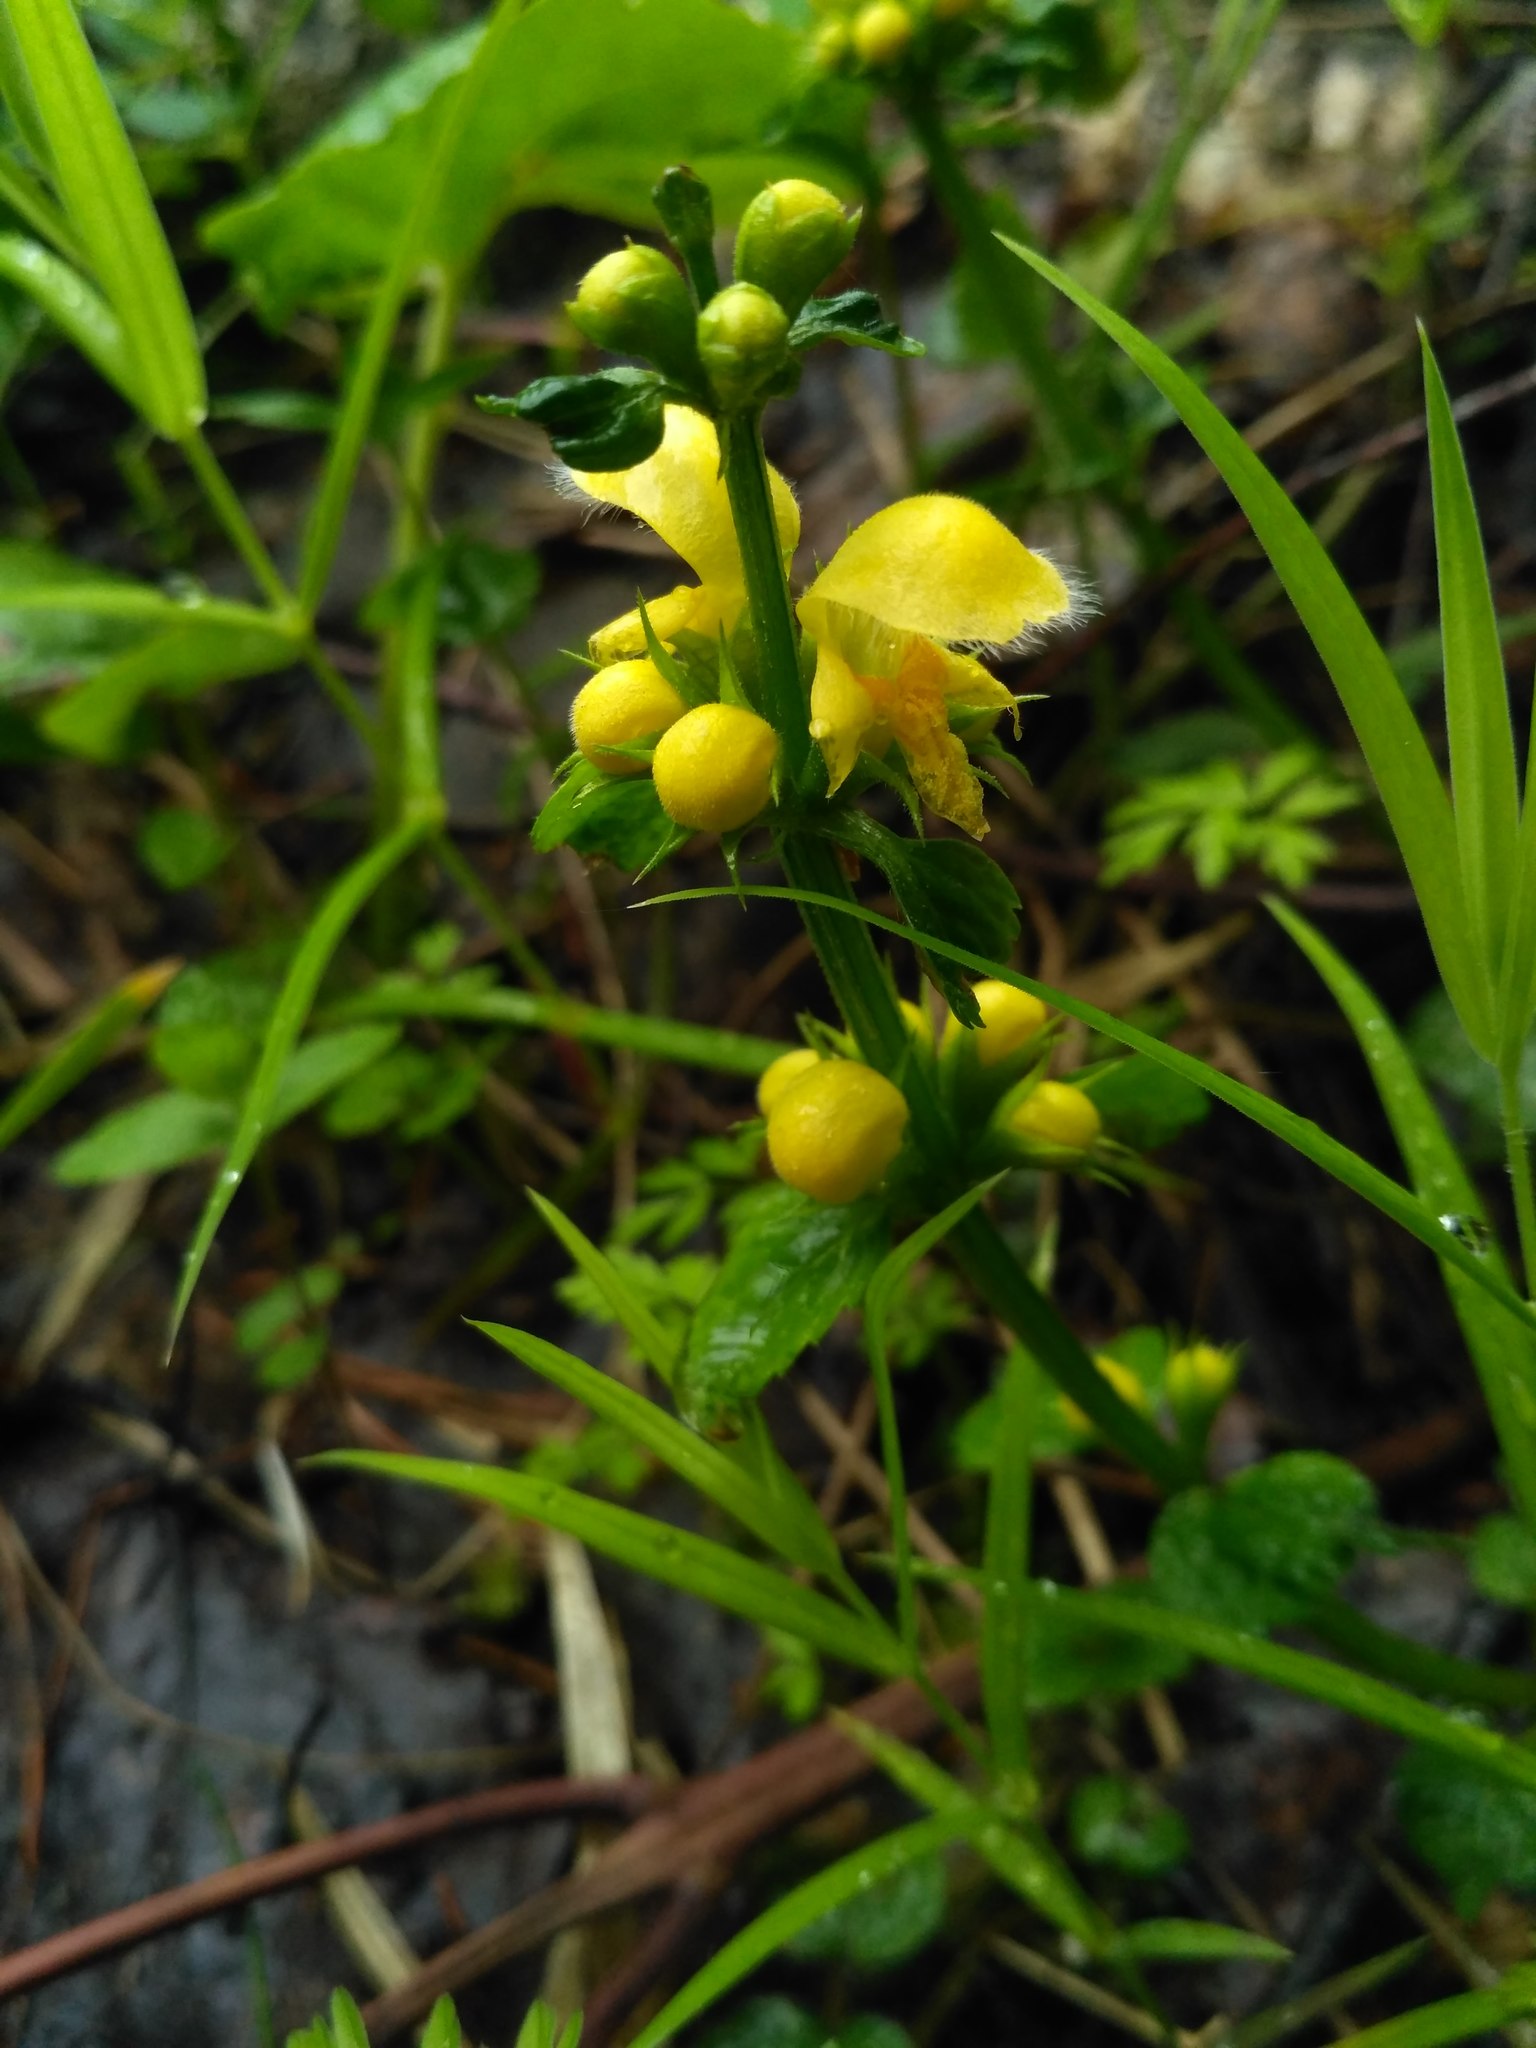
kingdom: Plantae
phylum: Tracheophyta
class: Magnoliopsida
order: Lamiales
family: Lamiaceae
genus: Lamium
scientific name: Lamium galeobdolon
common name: Yellow archangel
